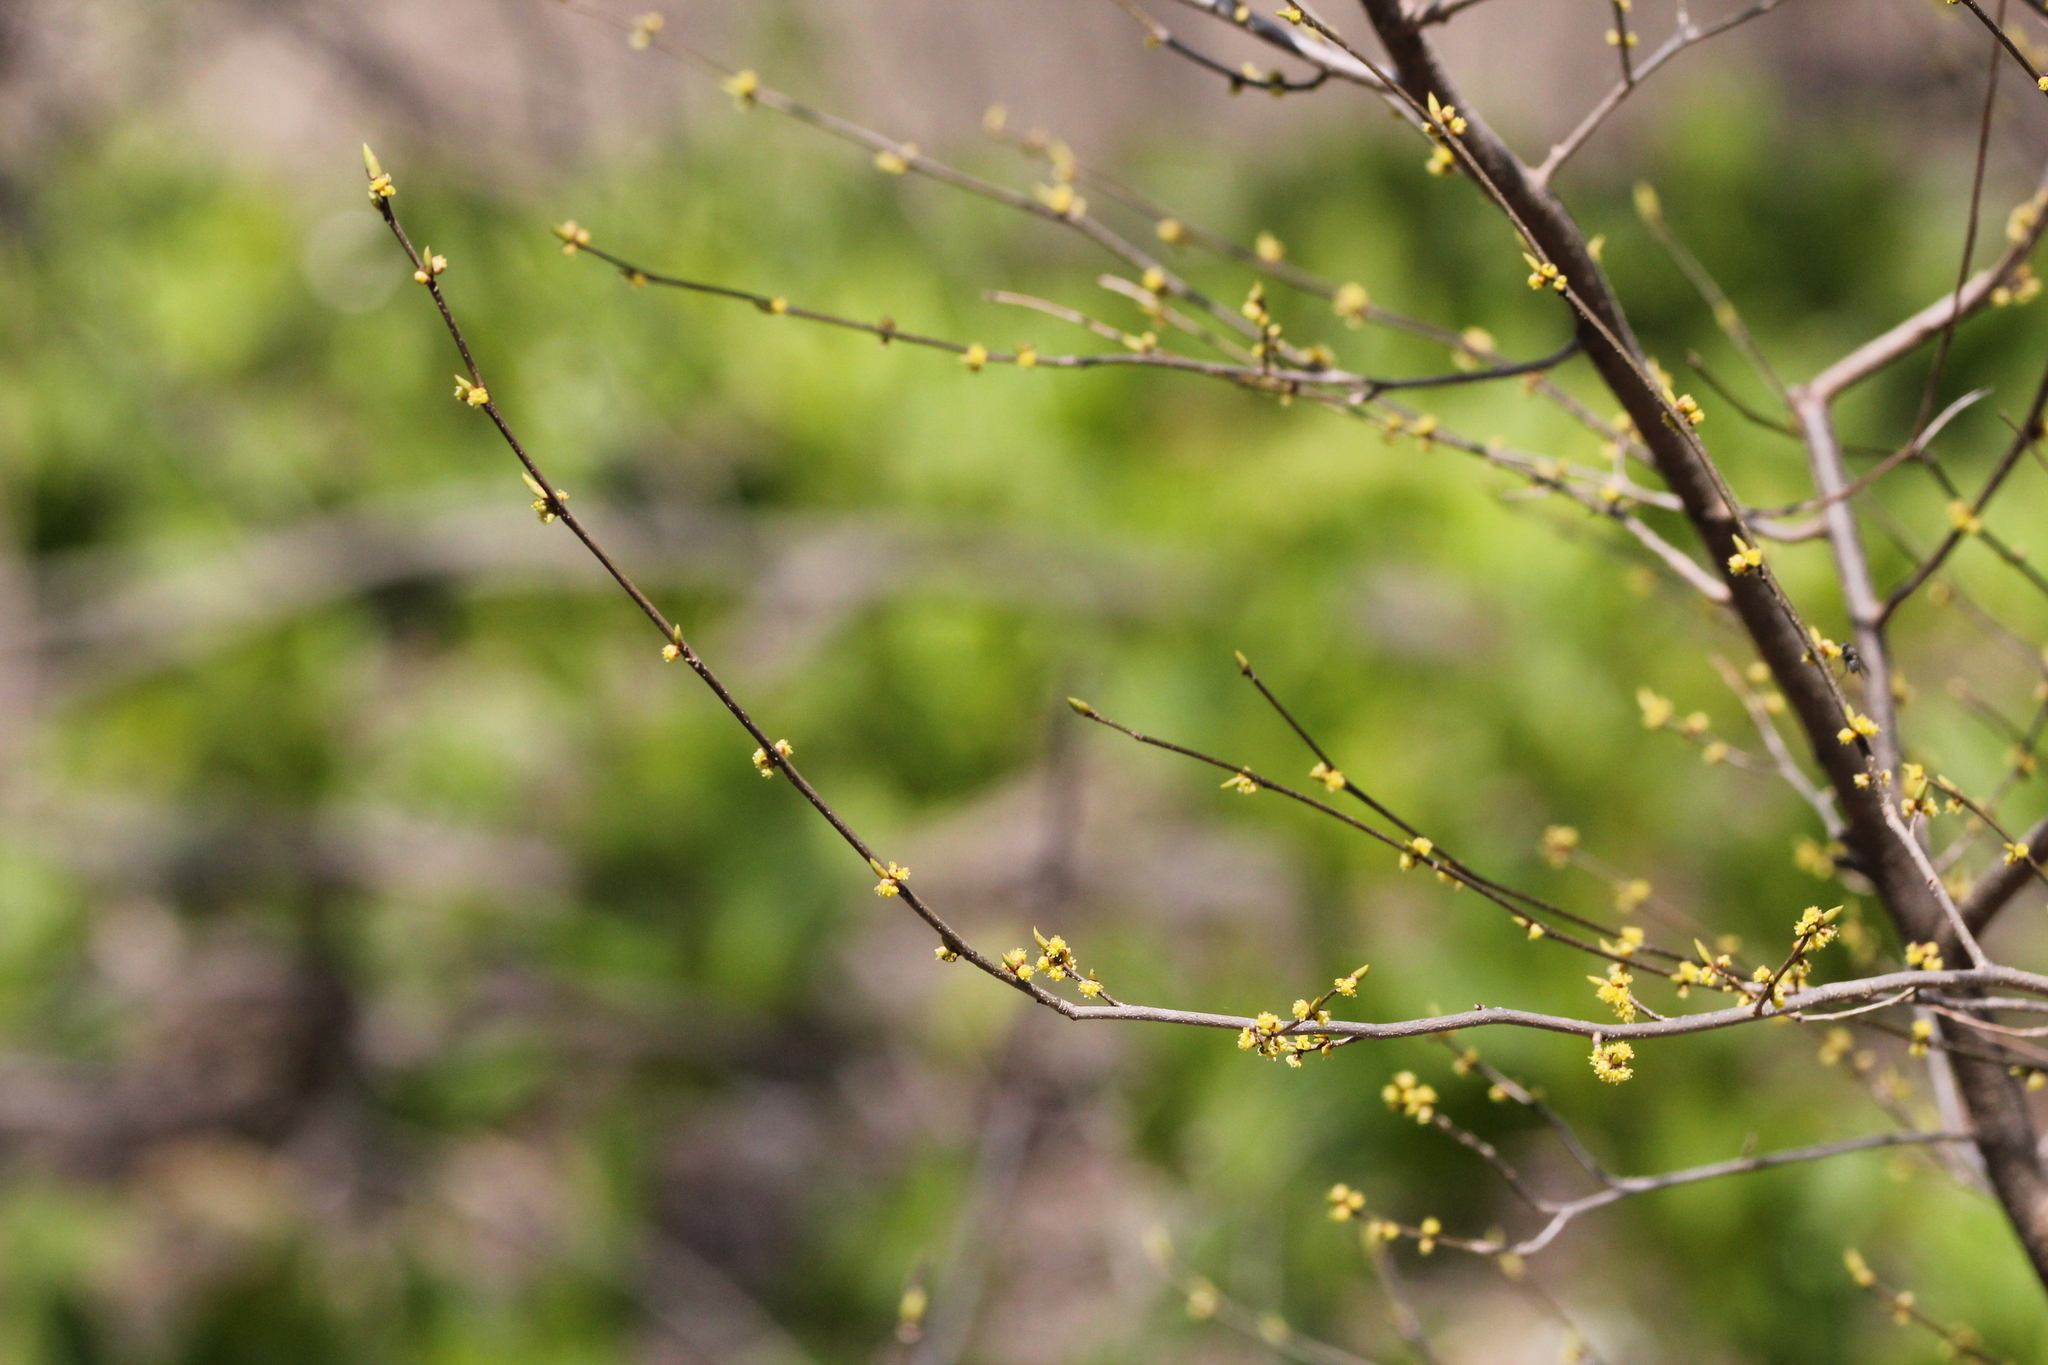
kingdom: Plantae
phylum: Tracheophyta
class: Magnoliopsida
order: Laurales
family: Lauraceae
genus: Lindera
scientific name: Lindera benzoin
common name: Spicebush
